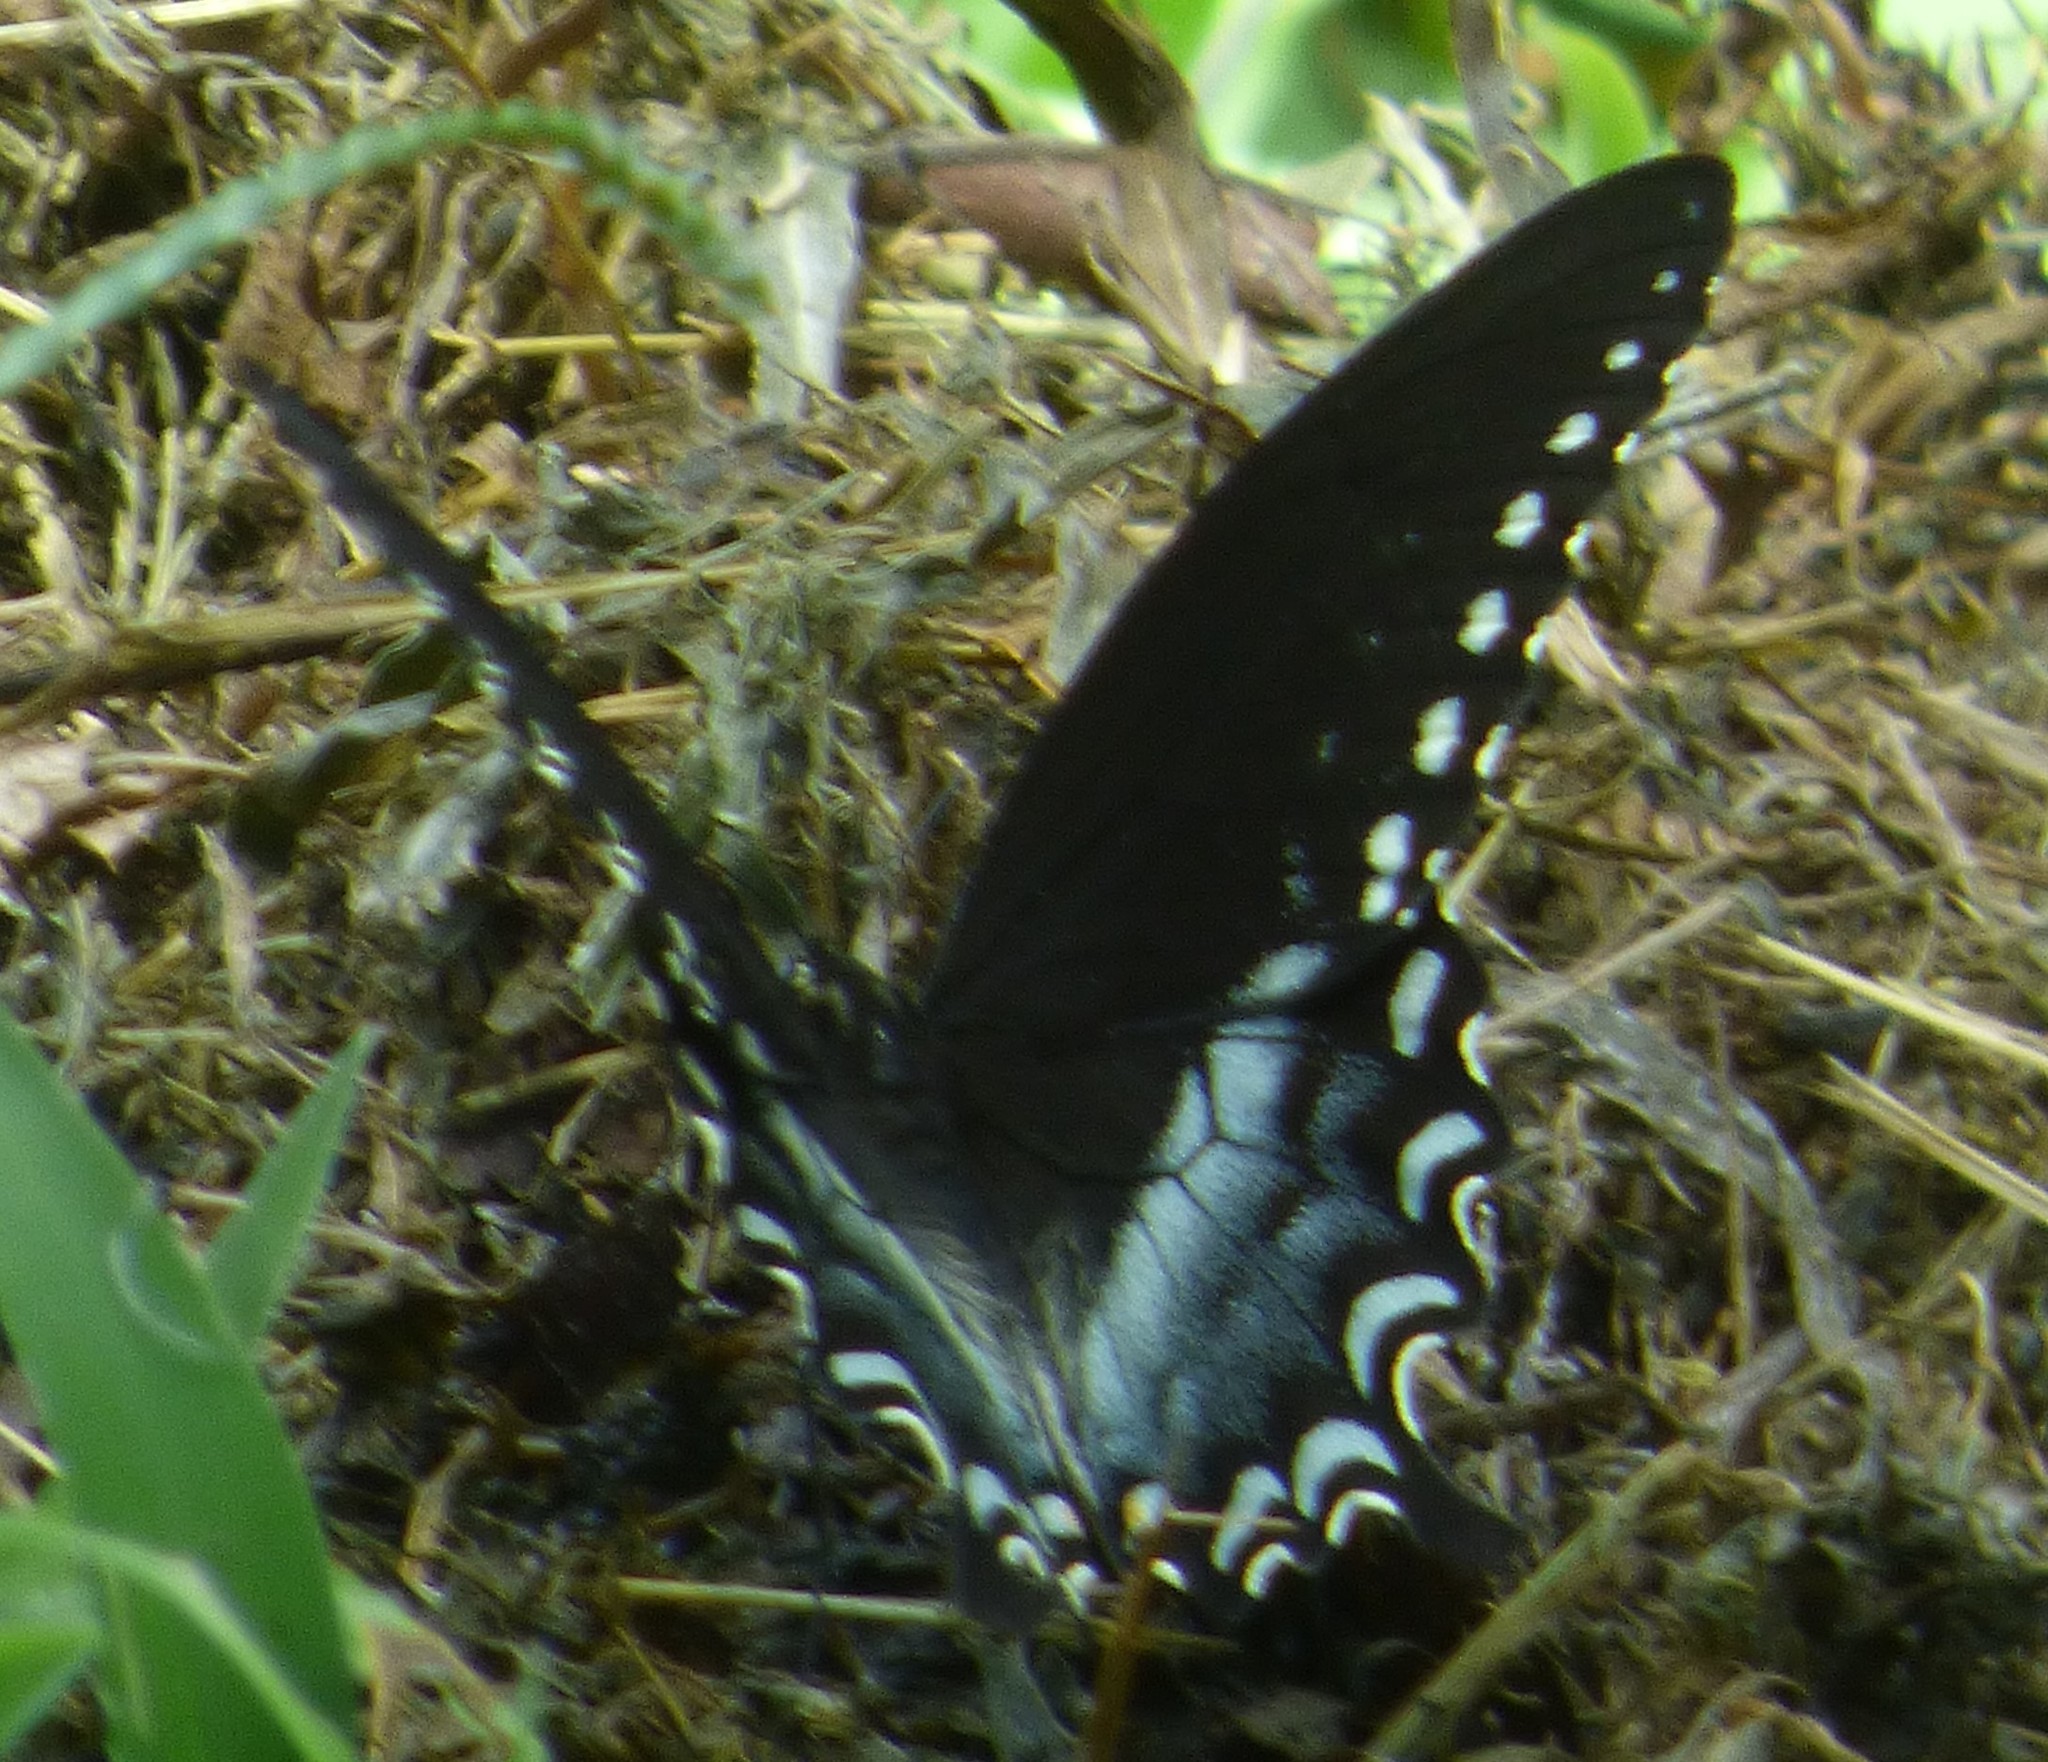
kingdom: Animalia
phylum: Arthropoda
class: Insecta
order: Lepidoptera
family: Papilionidae
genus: Papilio
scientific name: Papilio troilus
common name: Spicebush swallowtail
